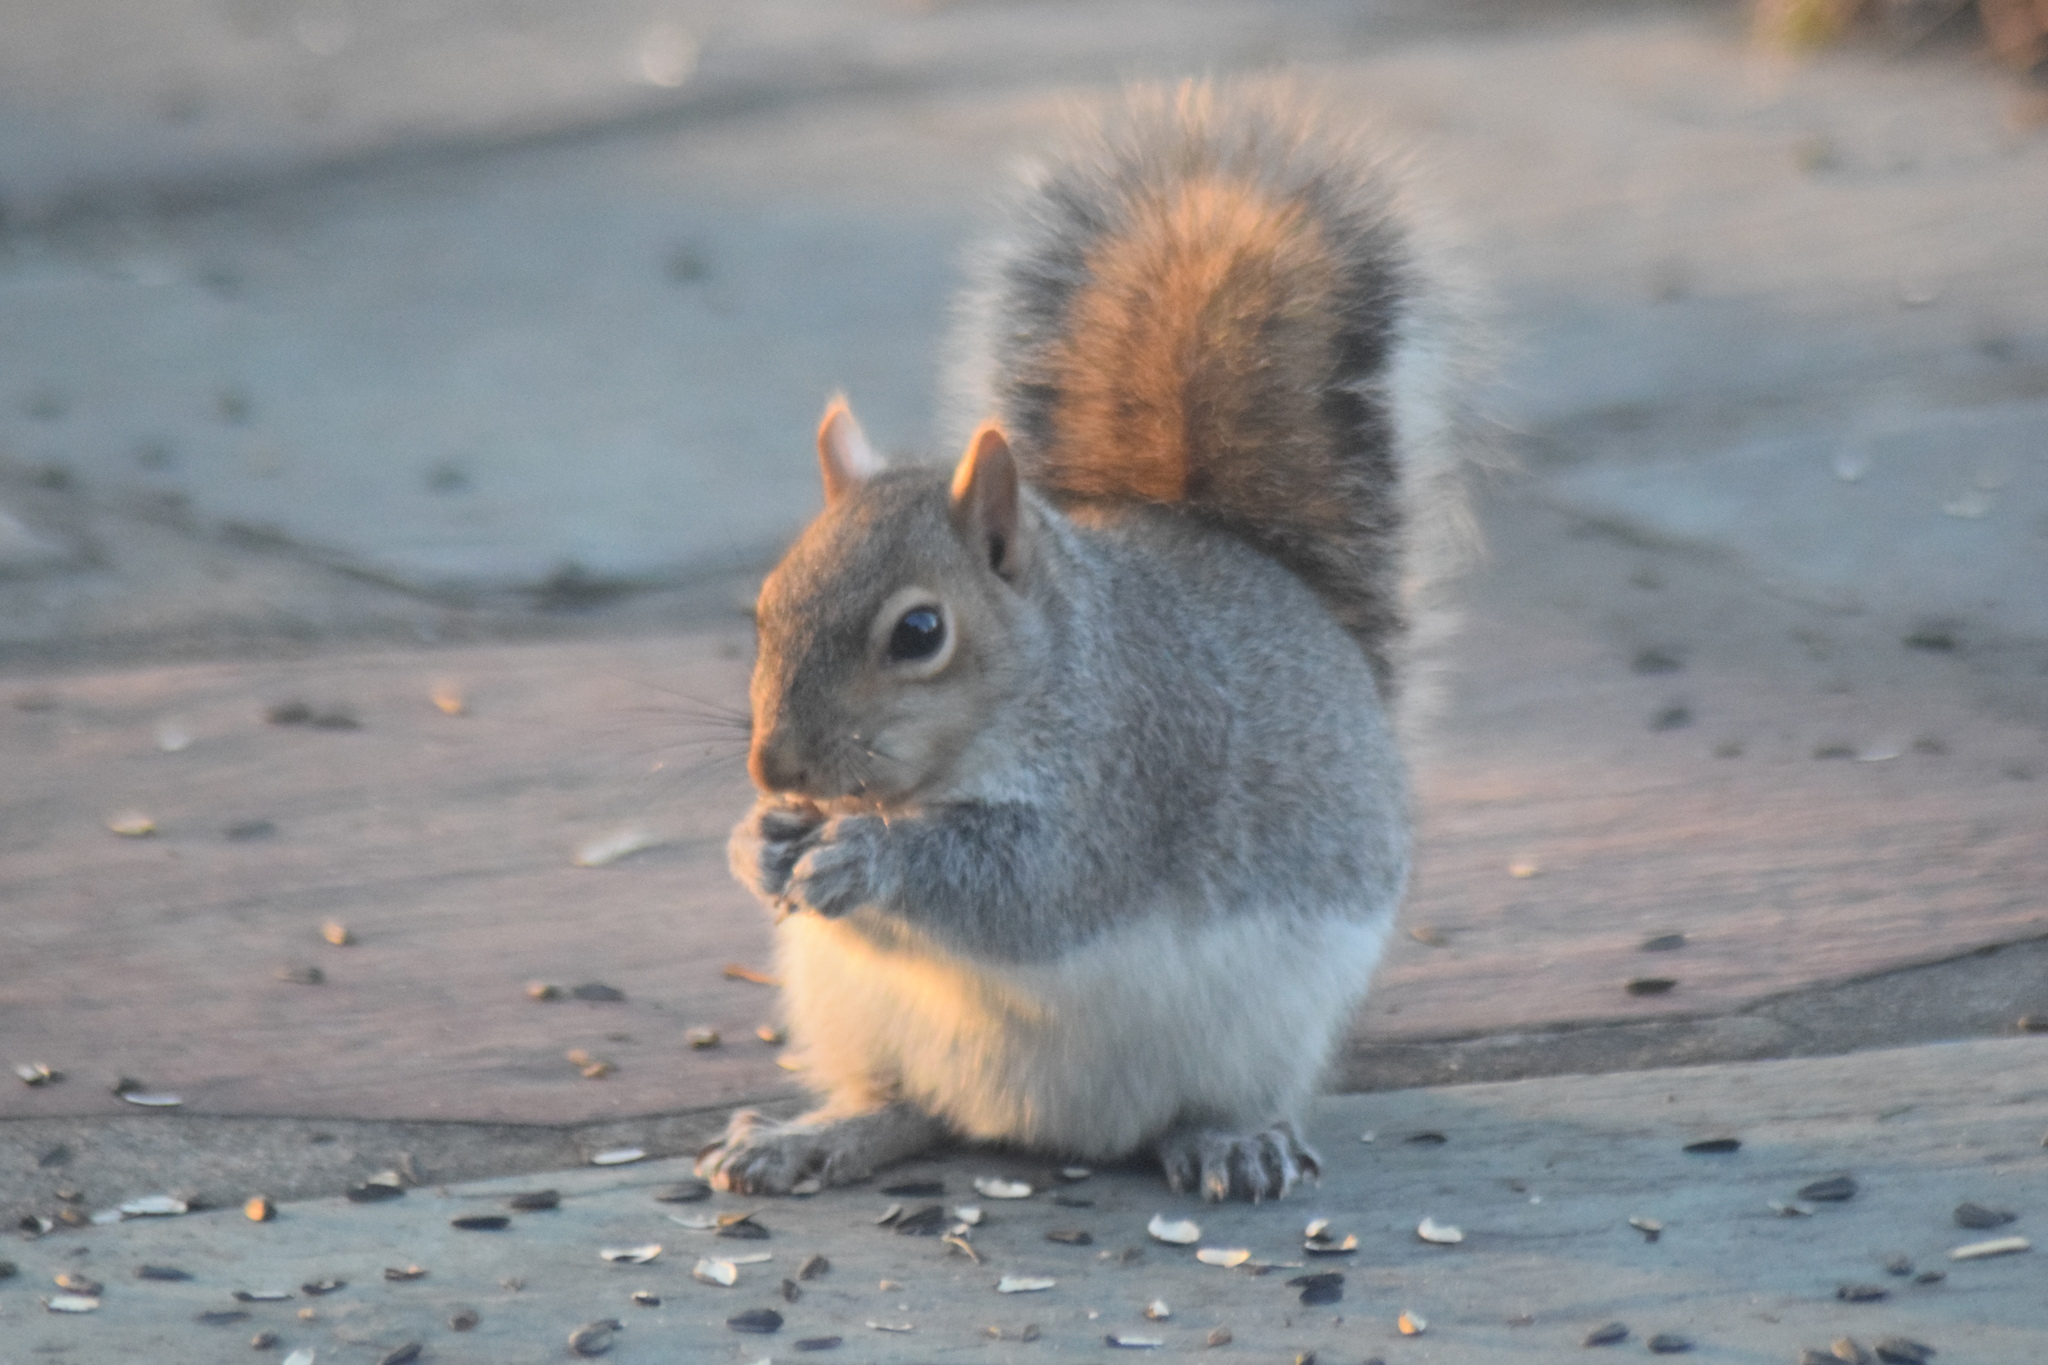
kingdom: Animalia
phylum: Chordata
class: Mammalia
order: Rodentia
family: Sciuridae
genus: Sciurus
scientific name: Sciurus carolinensis
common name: Eastern gray squirrel
